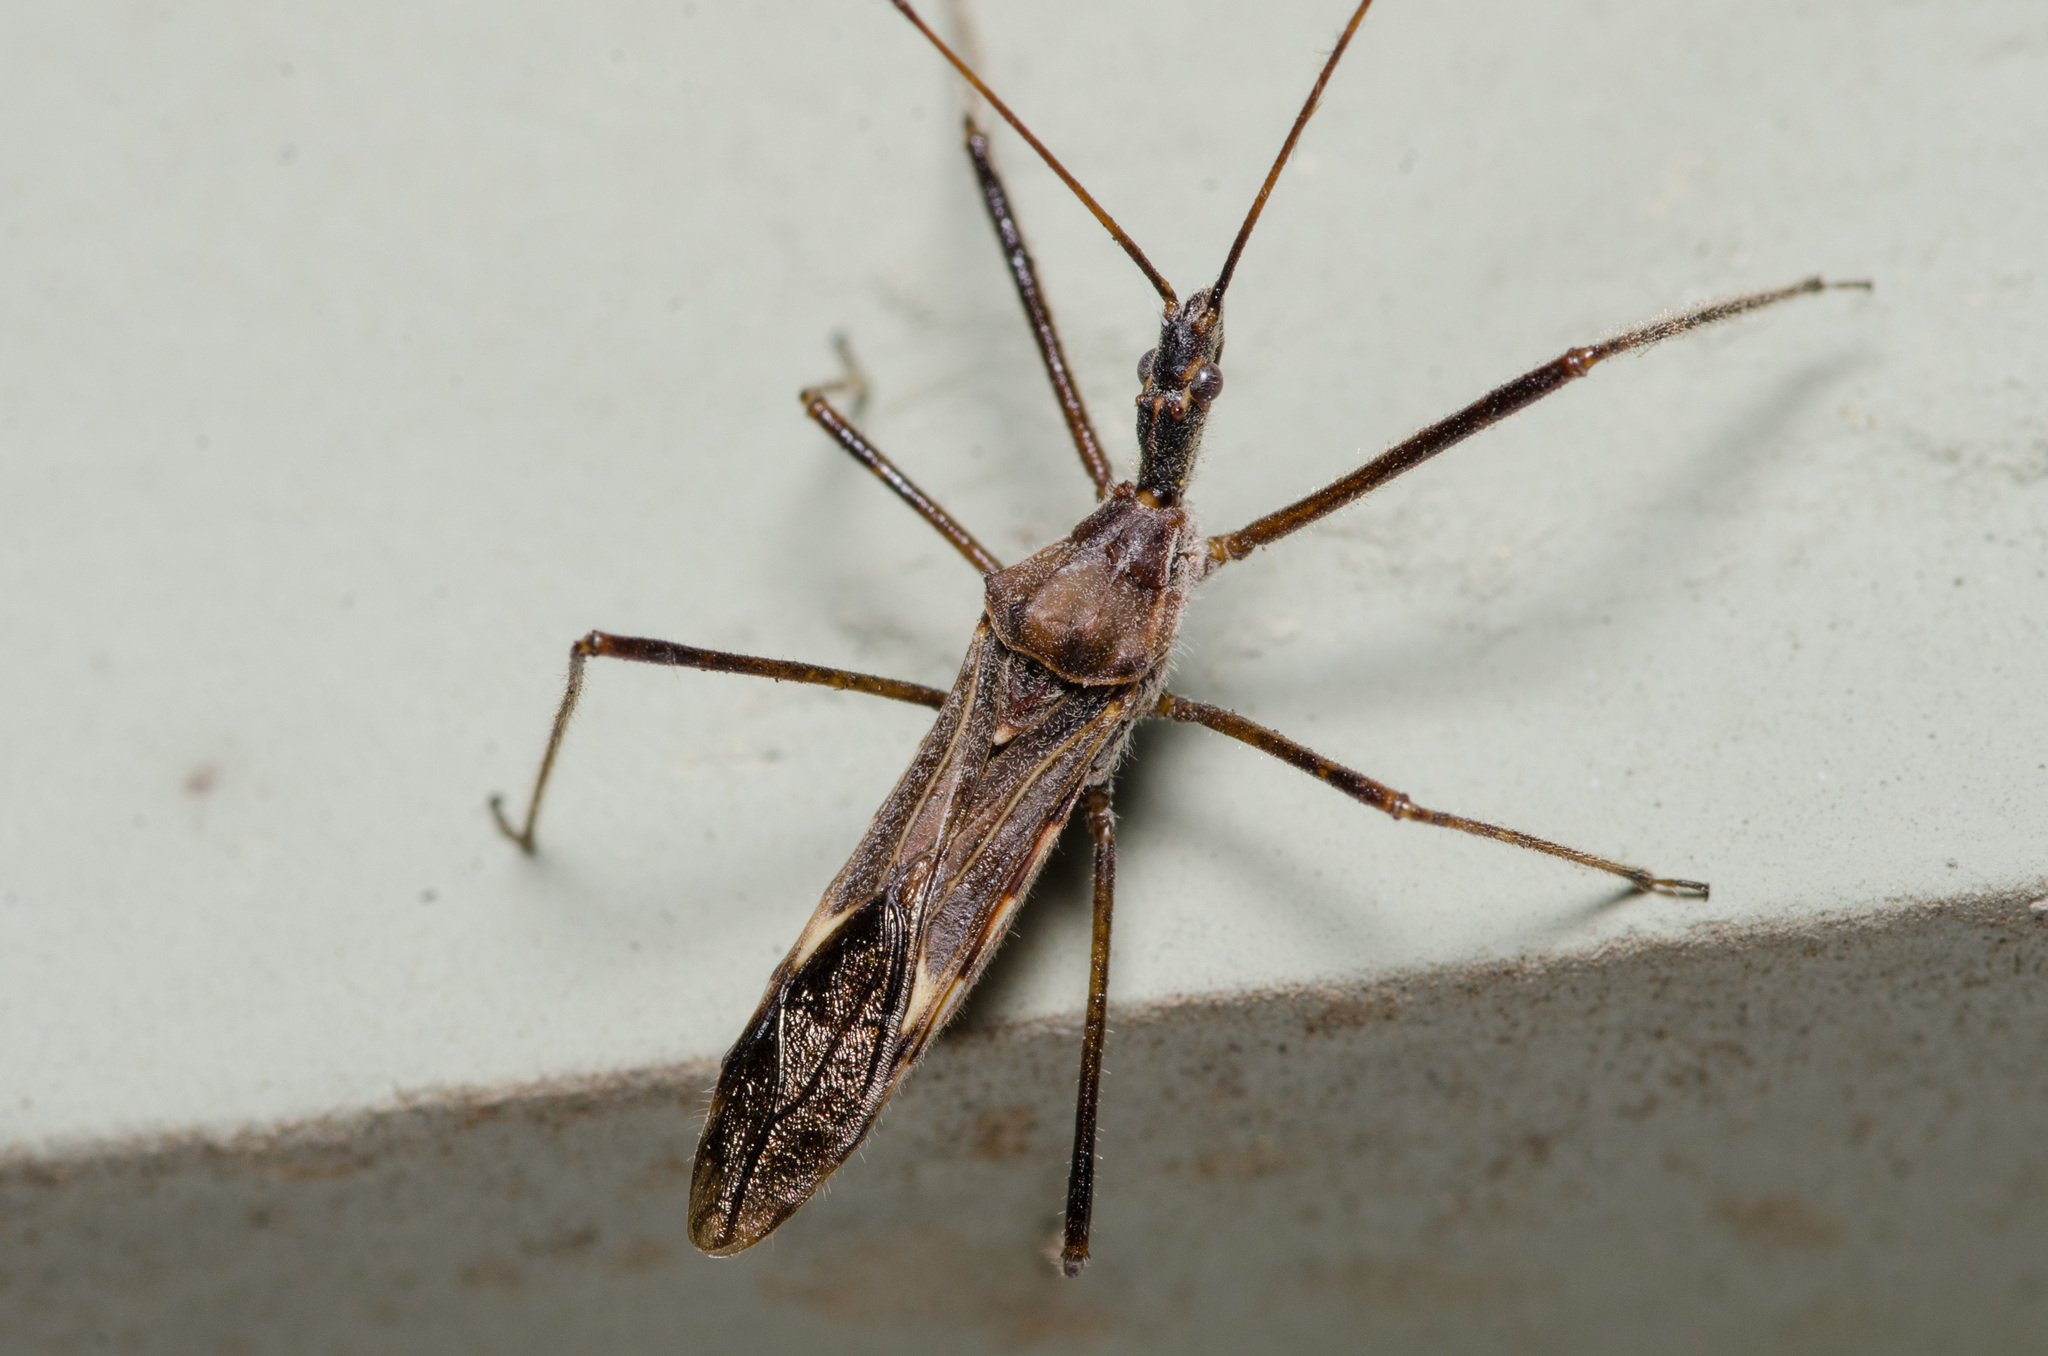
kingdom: Animalia
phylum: Arthropoda
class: Insecta
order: Hemiptera
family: Reduviidae
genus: Zelus
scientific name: Zelus tetracanthus
